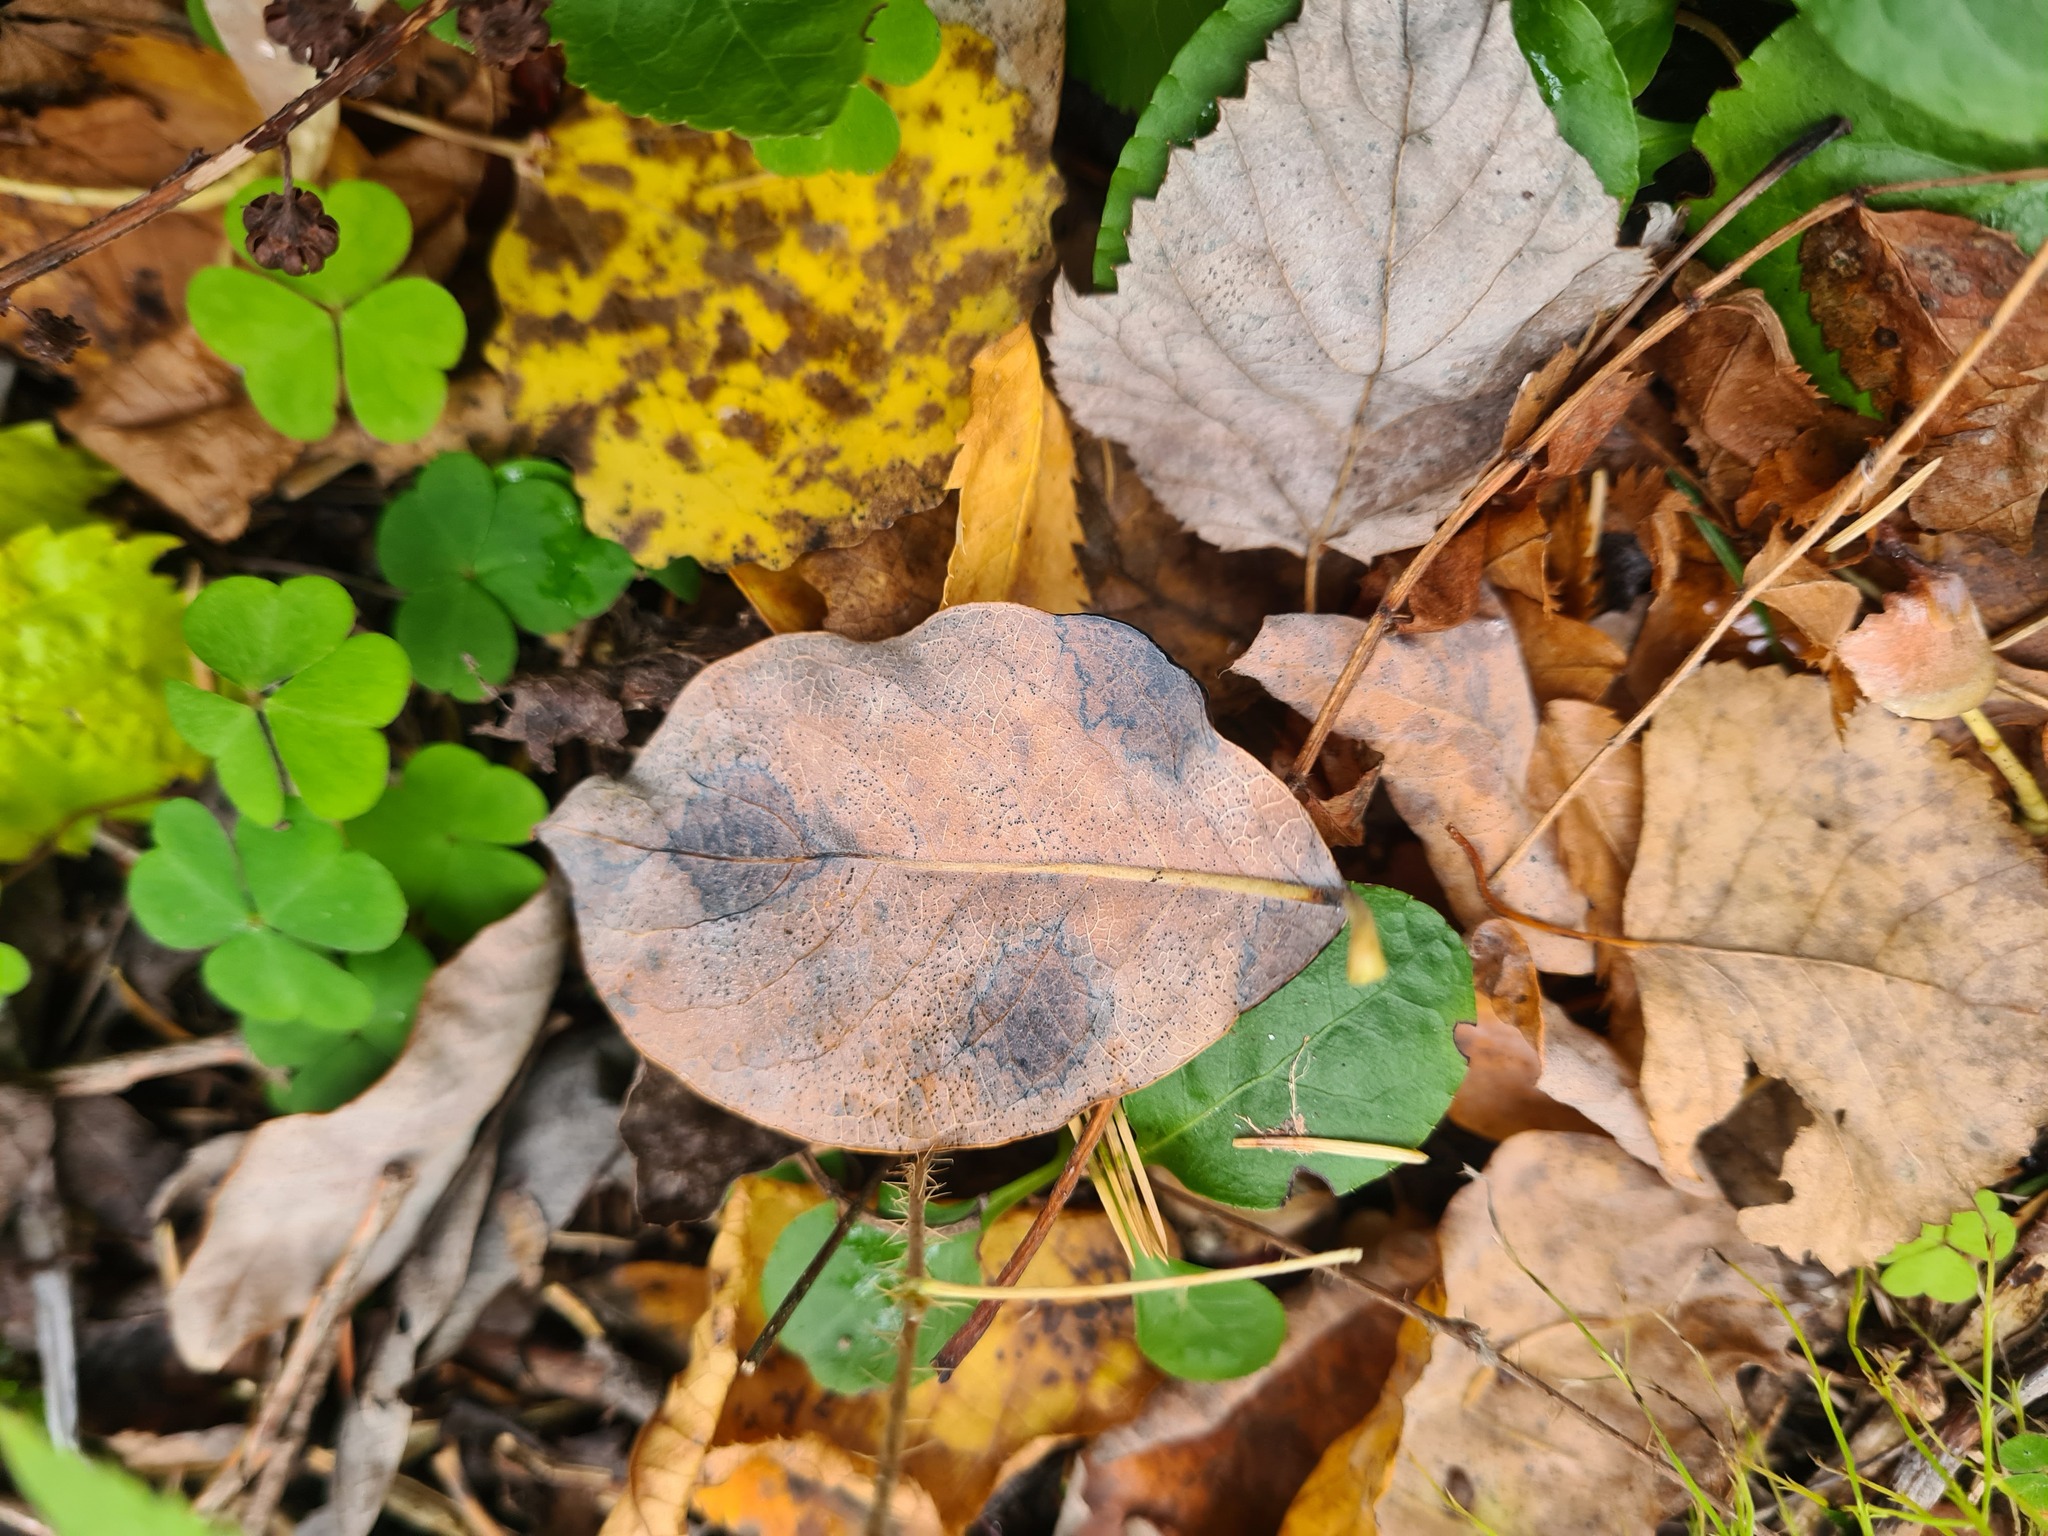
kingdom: Fungi
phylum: Ascomycota
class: Leotiomycetes
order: Rhytismatales
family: Rhytismataceae
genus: Rhytisma
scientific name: Rhytisma salicinum
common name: Willow tarspot
